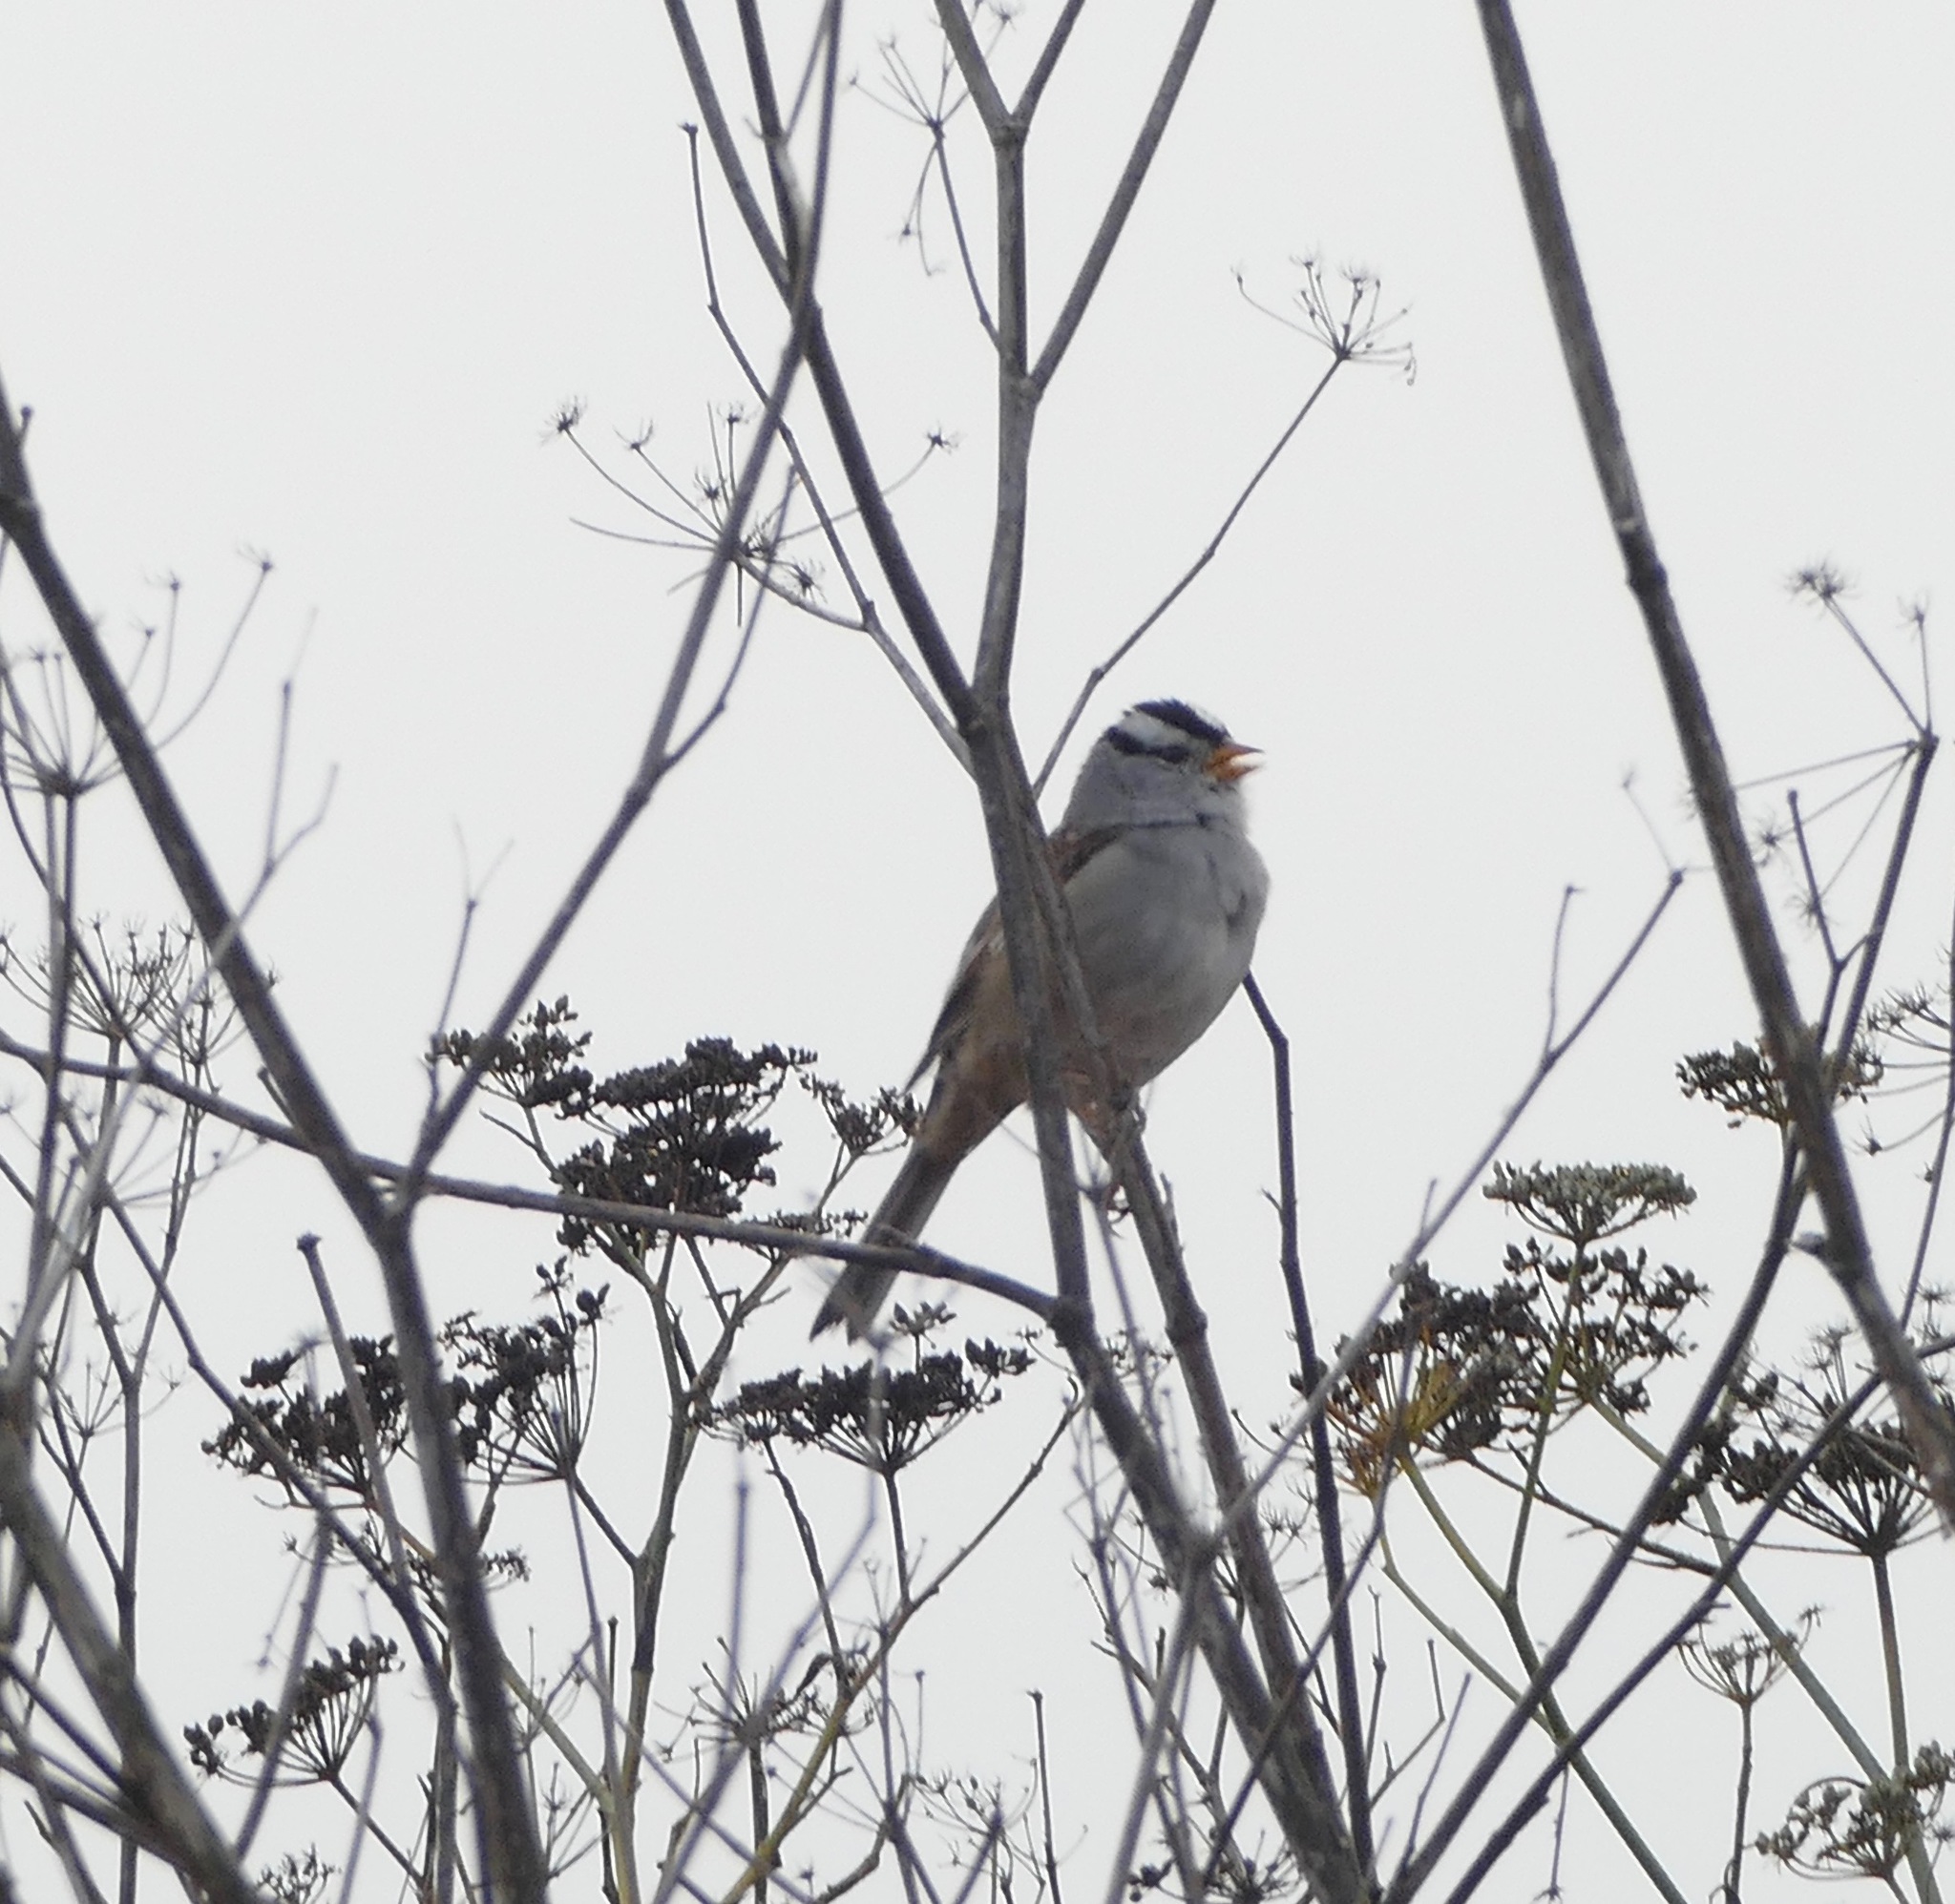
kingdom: Animalia
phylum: Chordata
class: Aves
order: Passeriformes
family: Passerellidae
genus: Zonotrichia
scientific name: Zonotrichia leucophrys
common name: White-crowned sparrow
